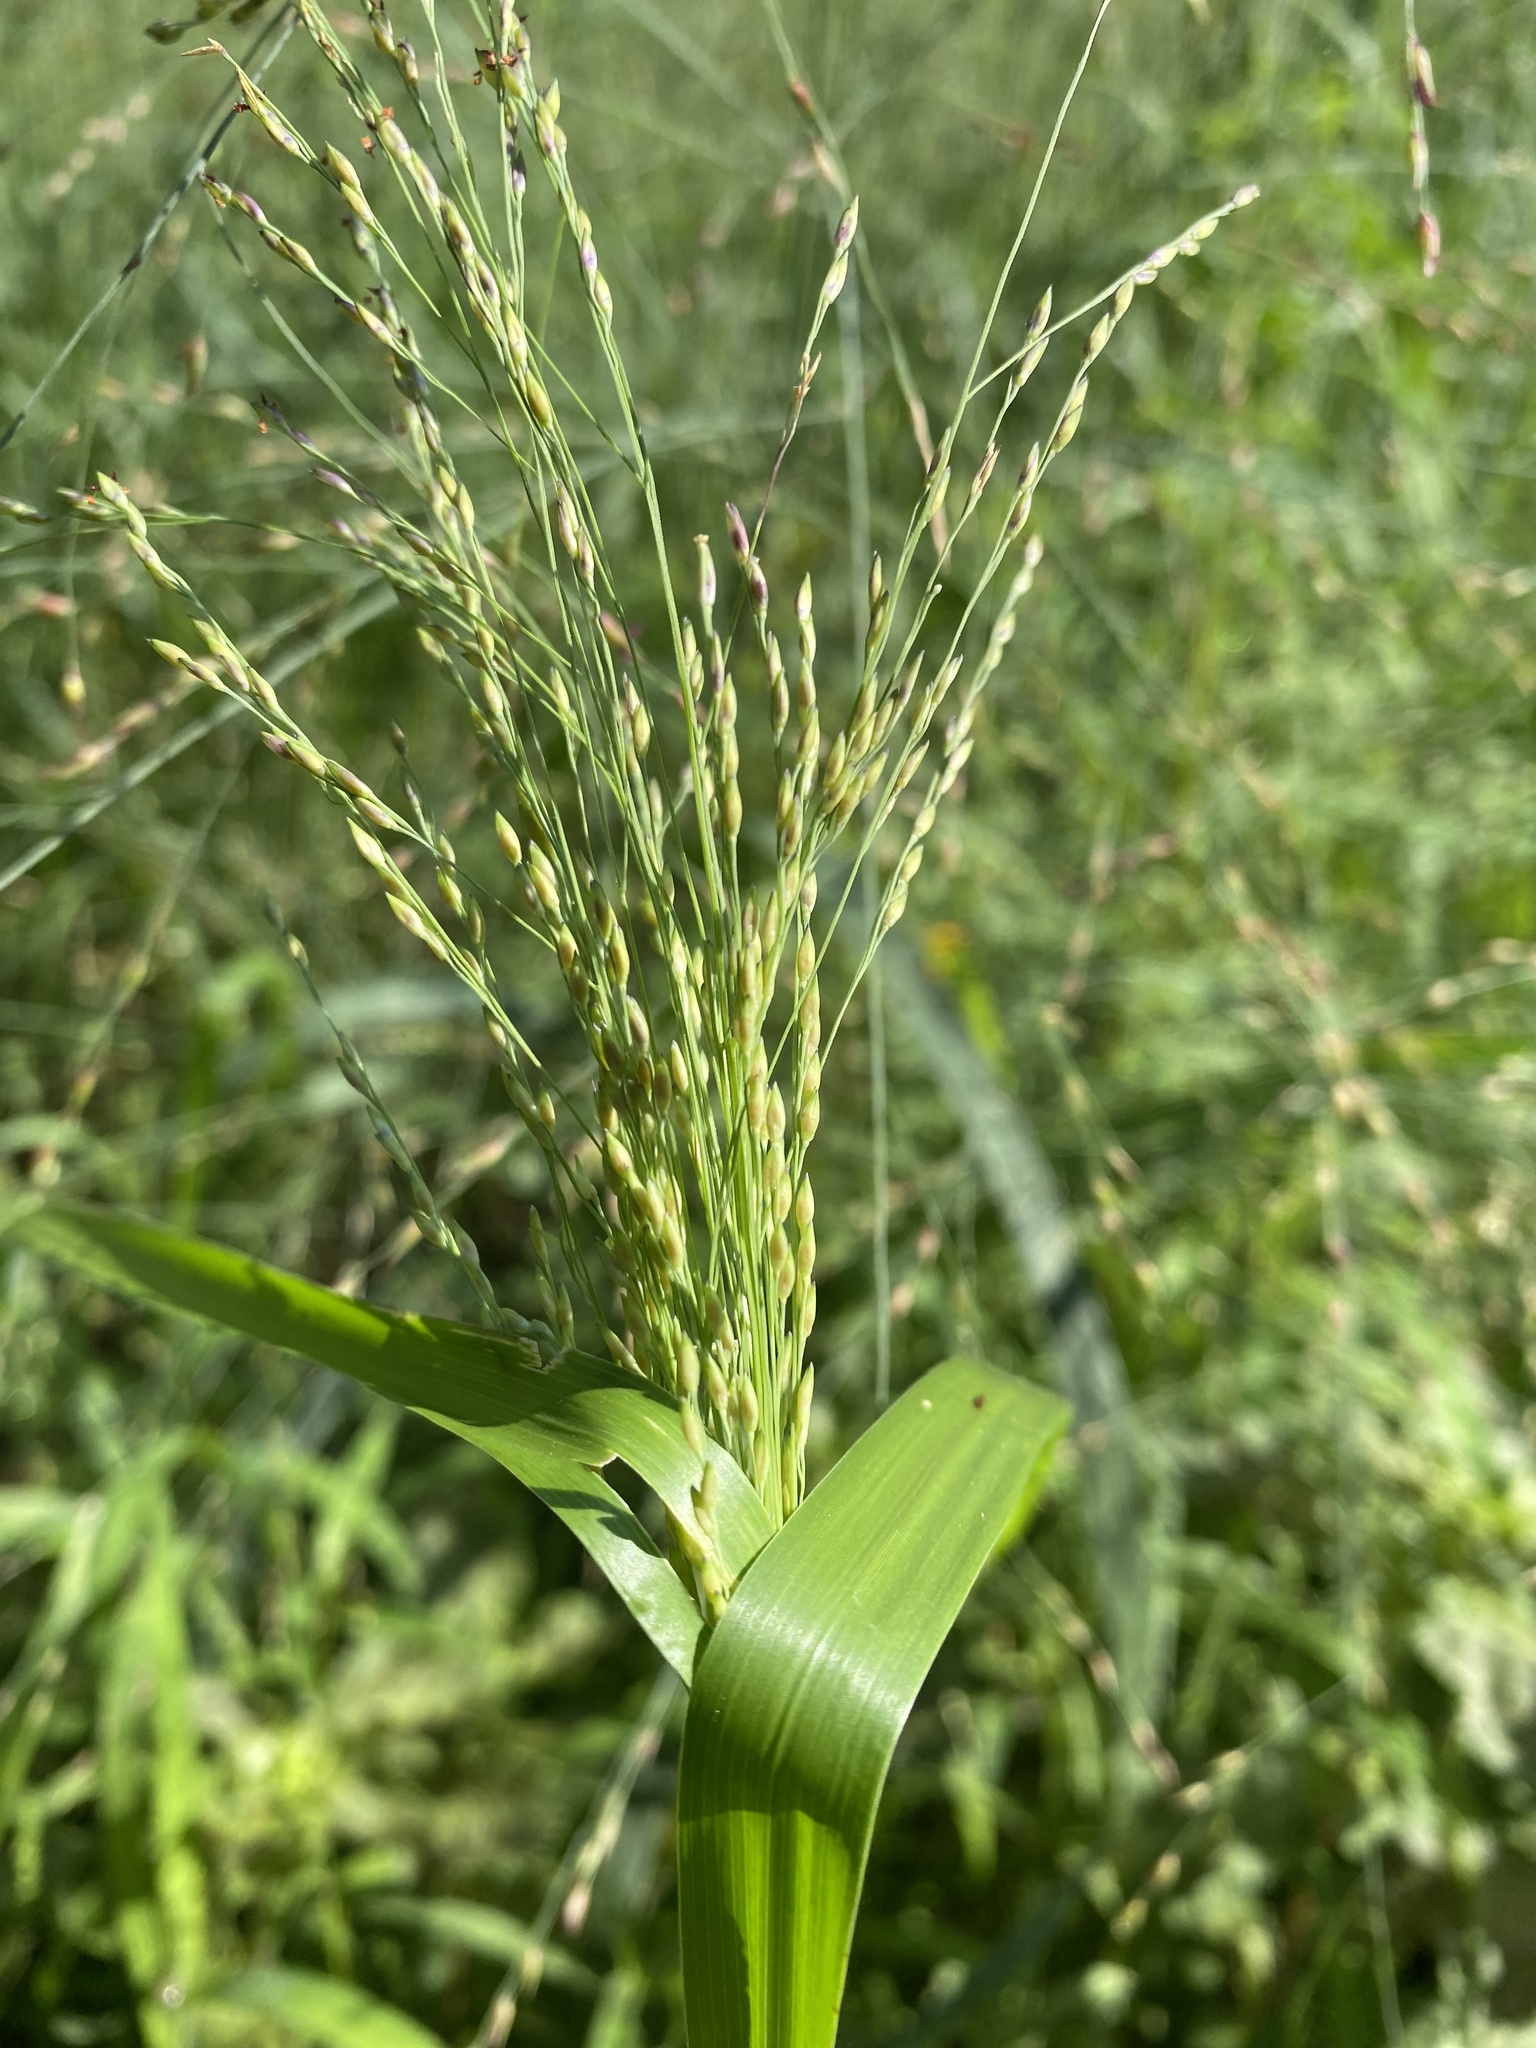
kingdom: Plantae
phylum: Tracheophyta
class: Liliopsida
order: Poales
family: Poaceae
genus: Panicum
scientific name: Panicum dichotomiflorum
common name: Autumn millet
